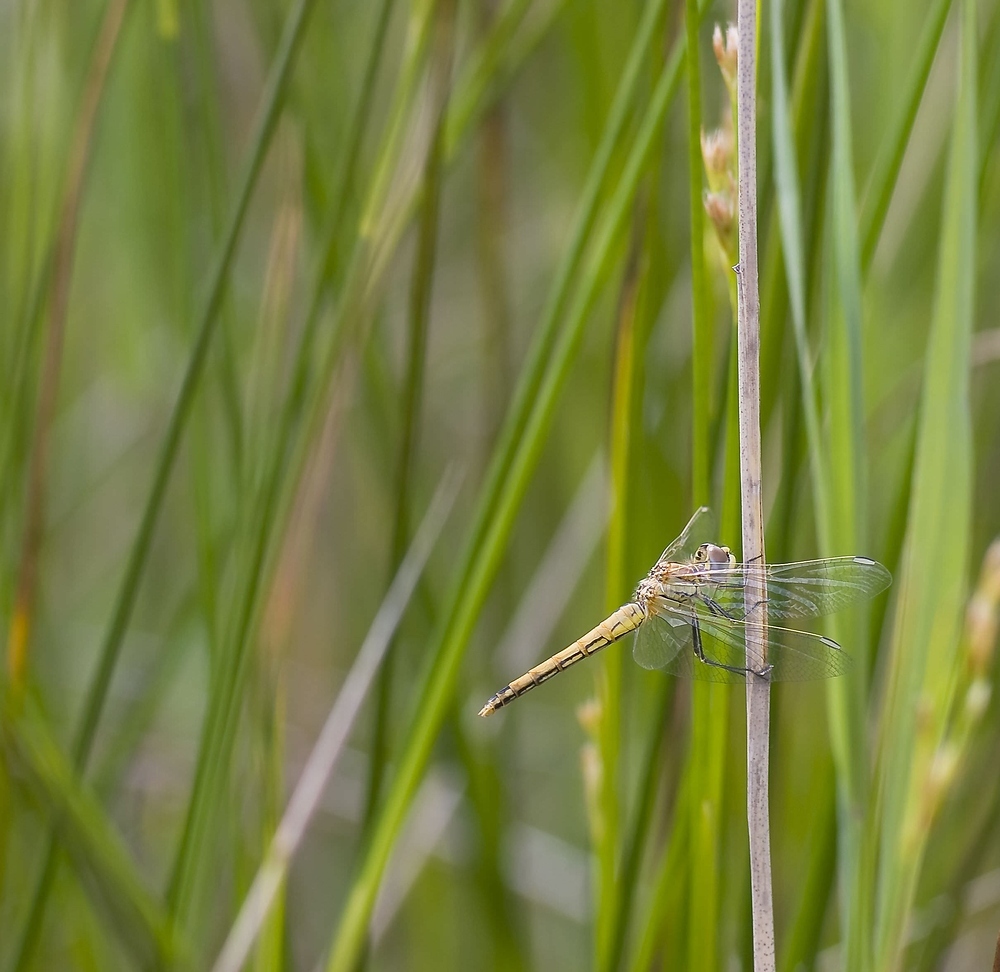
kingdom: Animalia
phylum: Arthropoda
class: Insecta
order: Odonata
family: Libellulidae
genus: Sympetrum
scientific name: Sympetrum fonscolombii
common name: Red-veined darter
